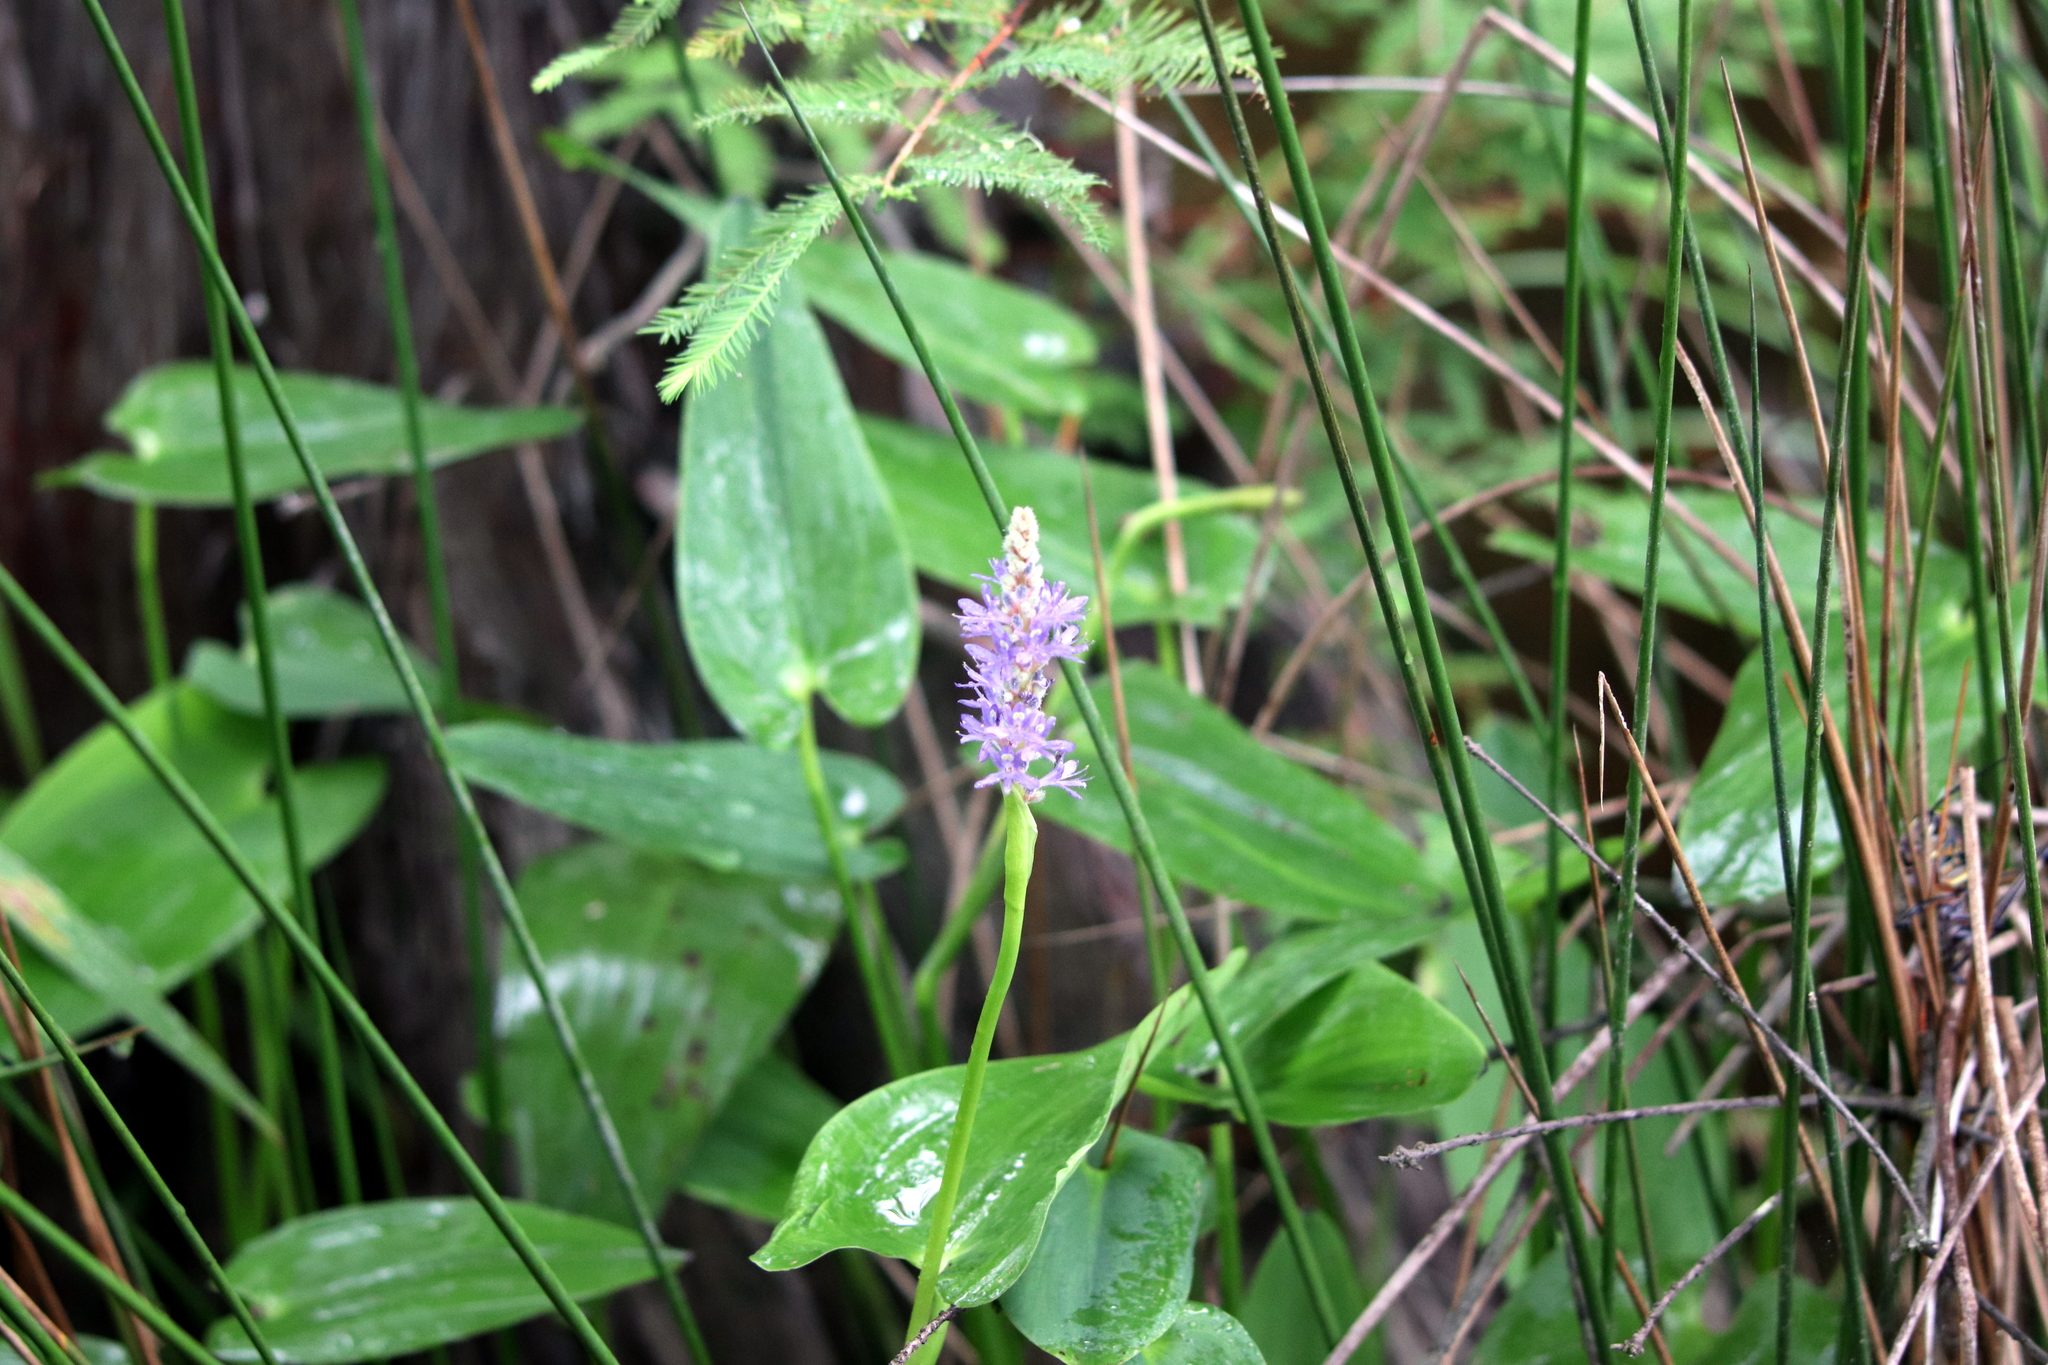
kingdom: Plantae
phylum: Tracheophyta
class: Liliopsida
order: Commelinales
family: Pontederiaceae
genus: Pontederia
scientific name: Pontederia cordata
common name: Pickerelweed
